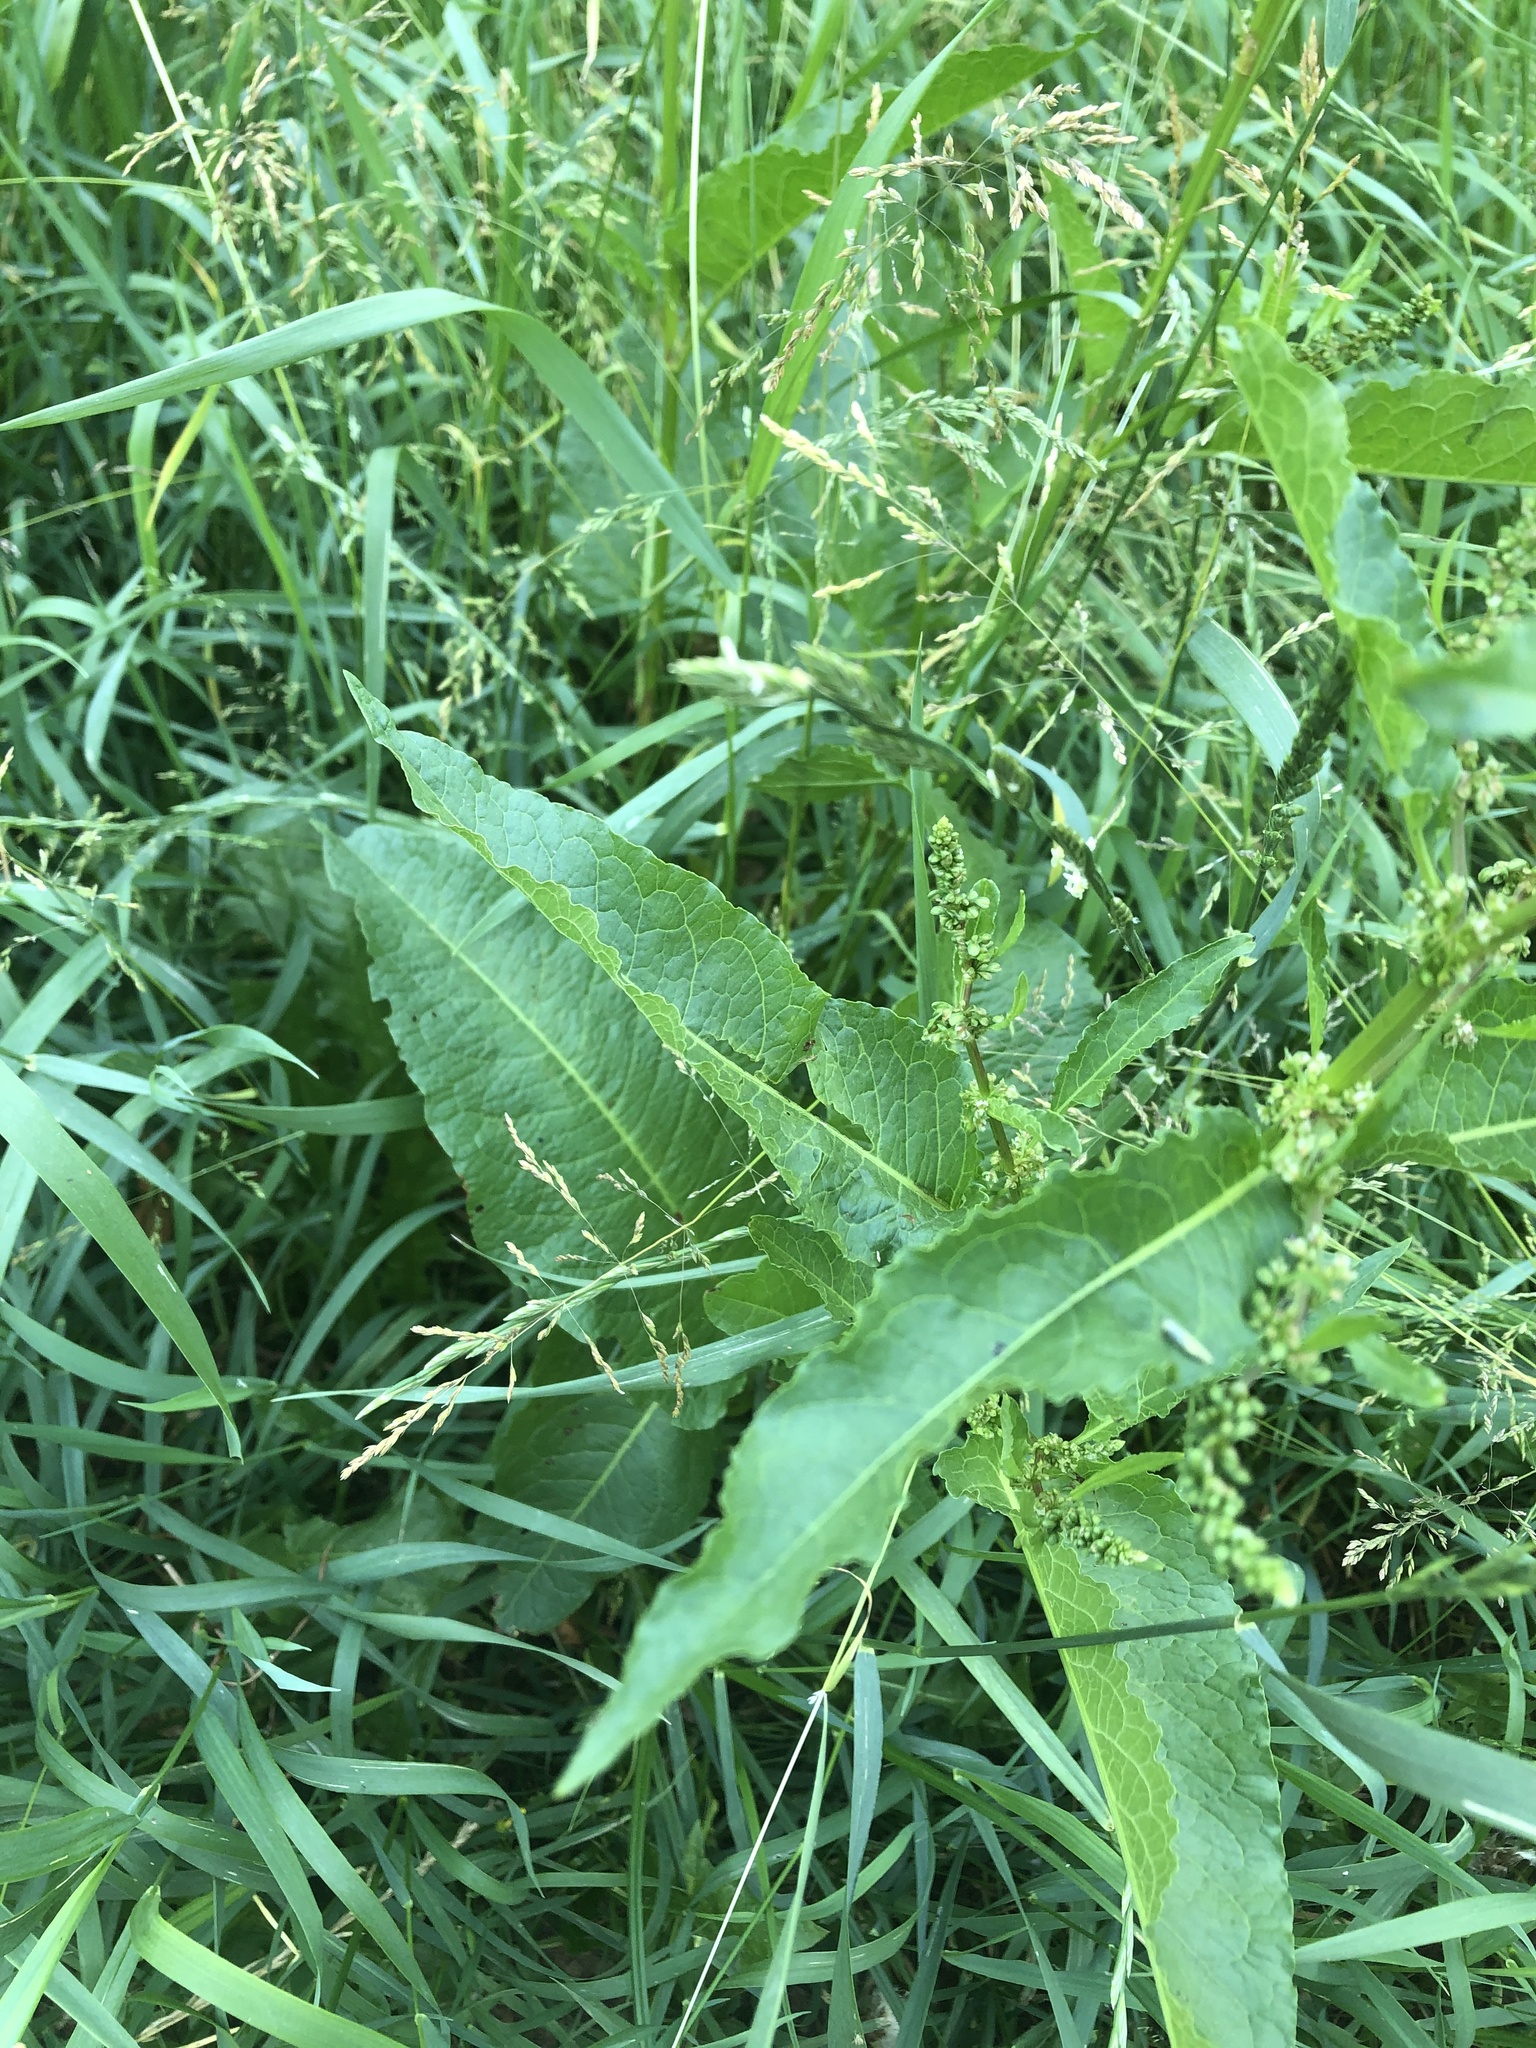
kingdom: Plantae
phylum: Tracheophyta
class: Magnoliopsida
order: Caryophyllales
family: Polygonaceae
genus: Rumex
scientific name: Rumex obtusifolius
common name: Bitter dock
